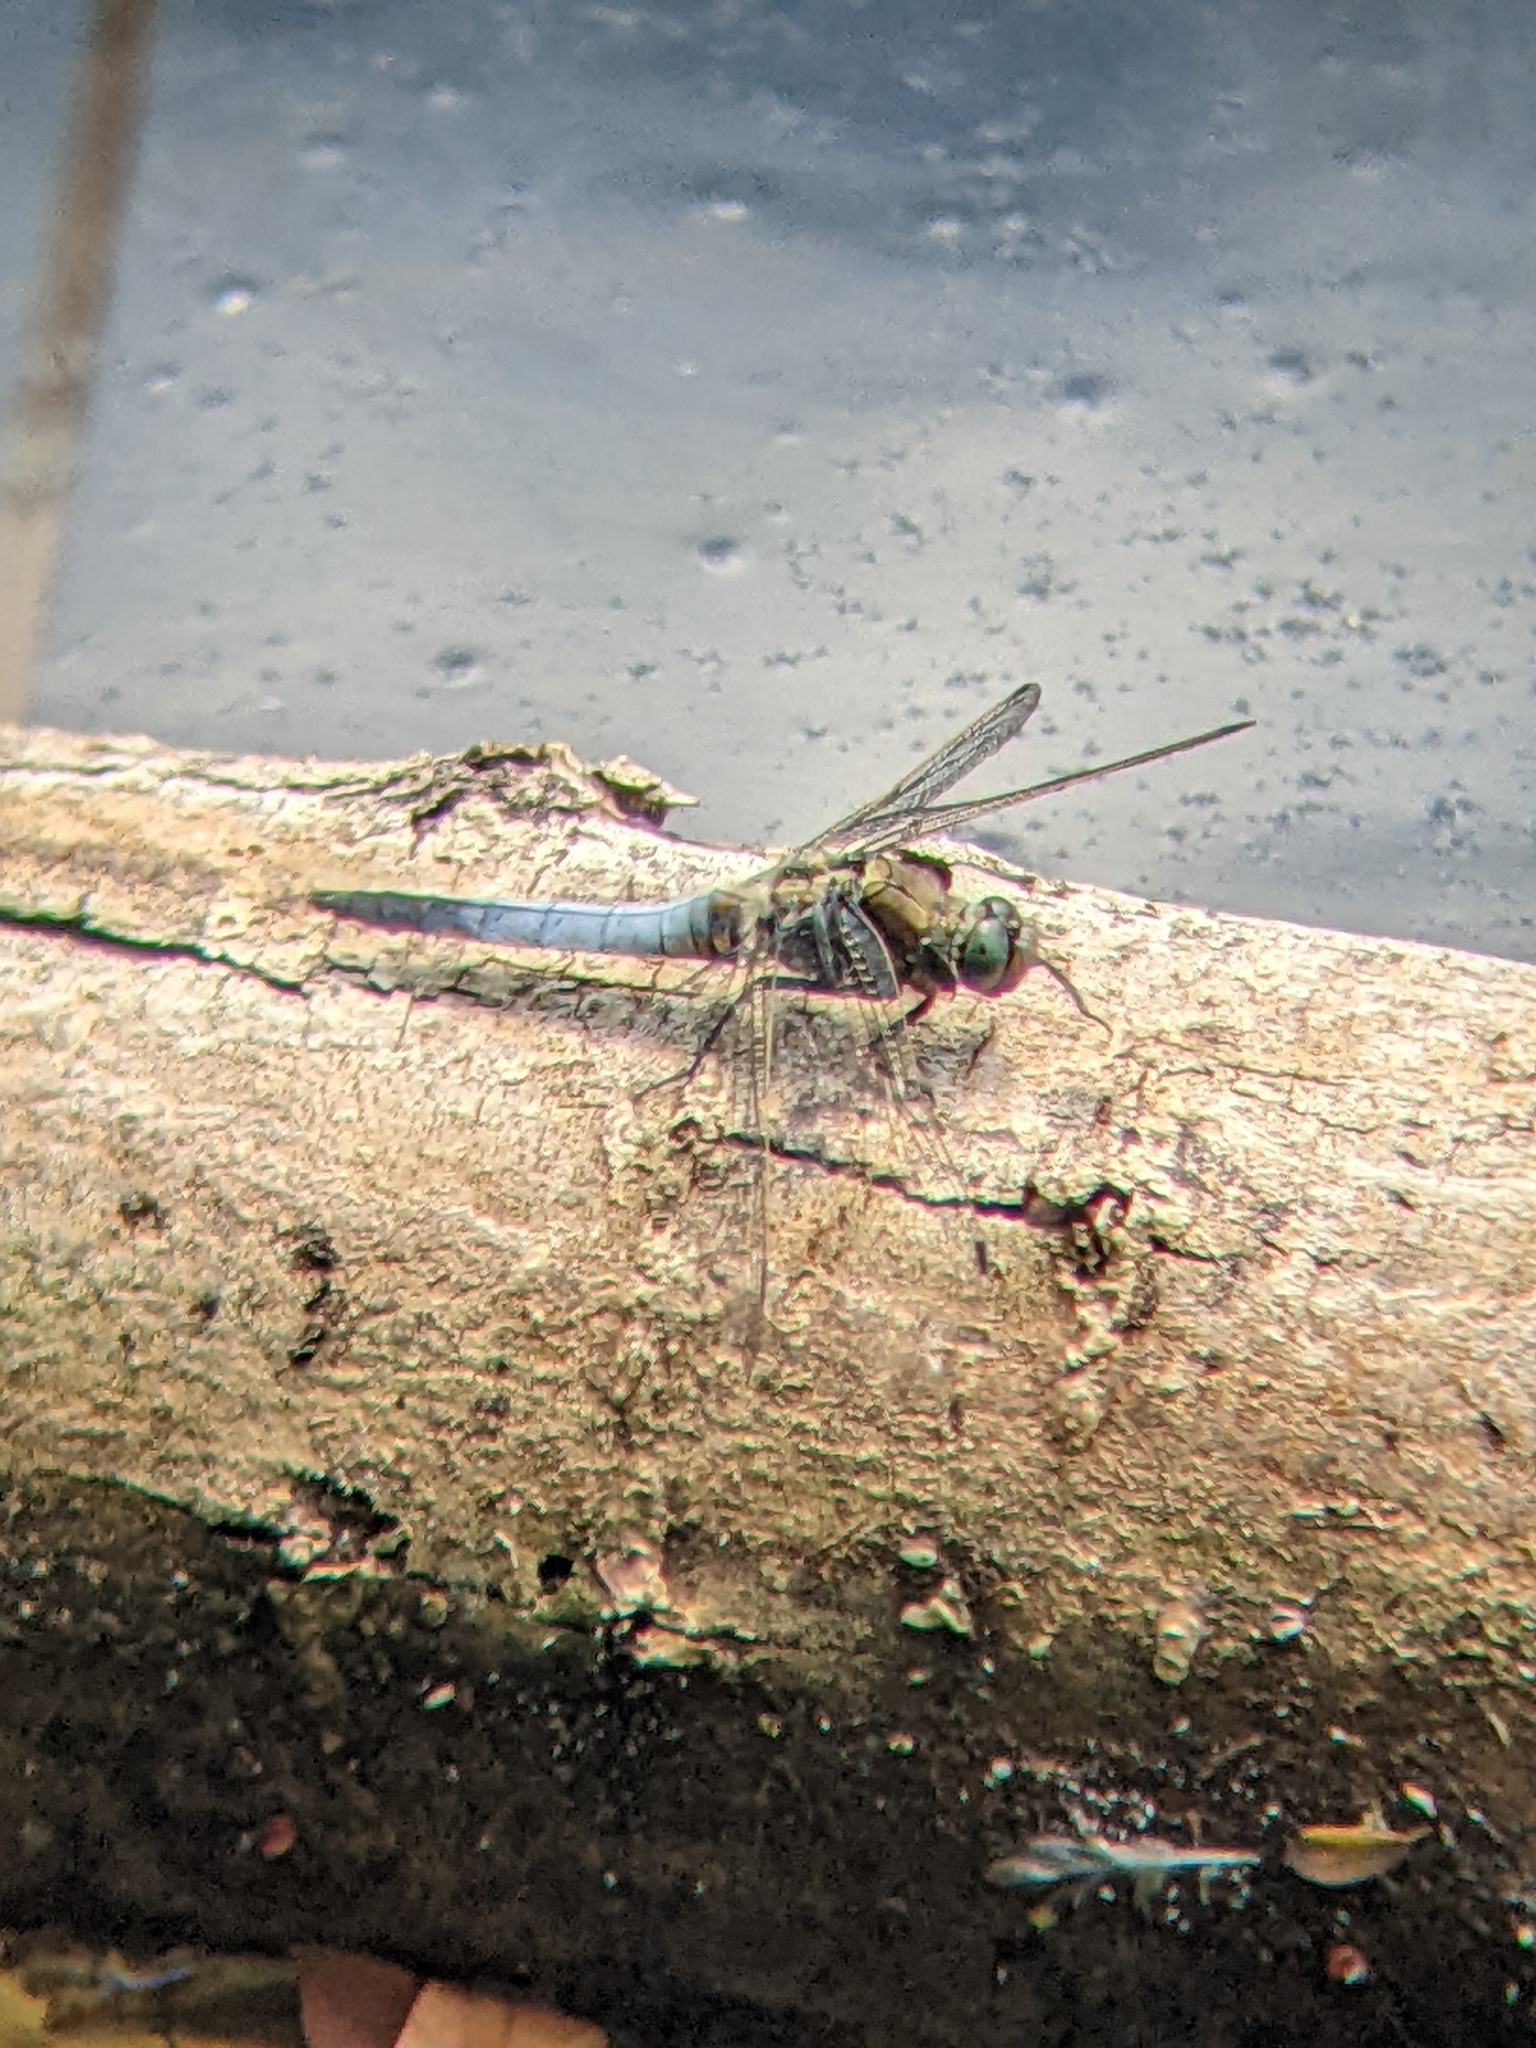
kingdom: Animalia
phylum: Arthropoda
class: Insecta
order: Odonata
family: Libellulidae
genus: Orthetrum
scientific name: Orthetrum cancellatum
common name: Black-tailed skimmer
